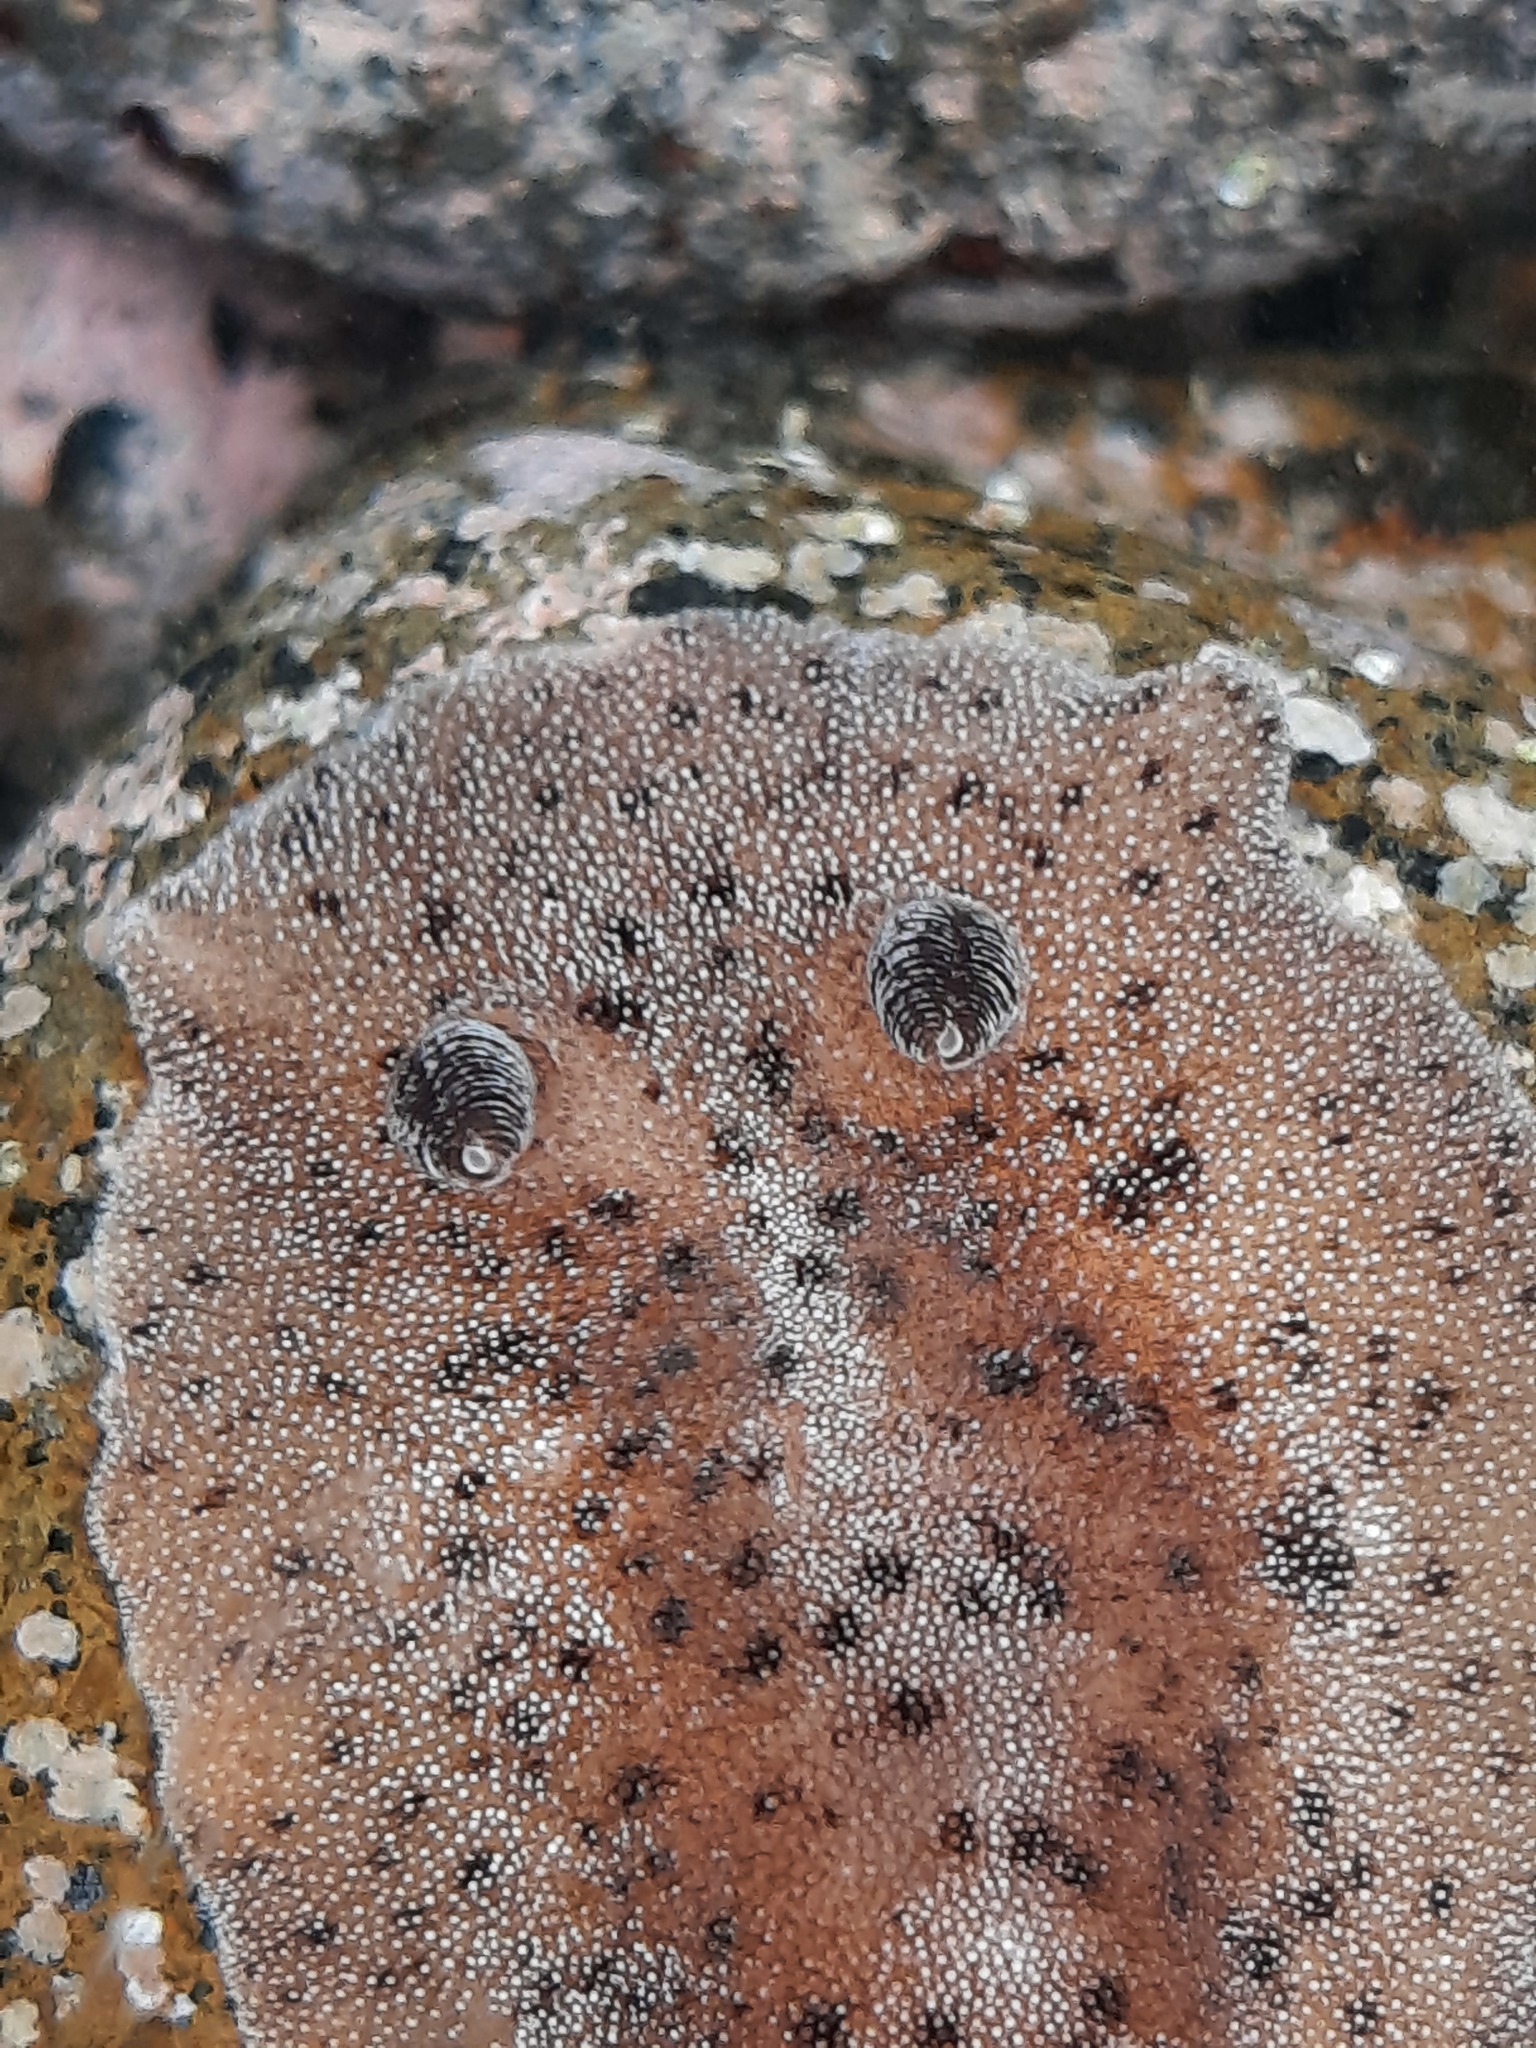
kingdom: Animalia
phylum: Mollusca
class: Gastropoda
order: Nudibranchia
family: Discodorididae
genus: Alloiodoris
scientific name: Alloiodoris lanuginata
